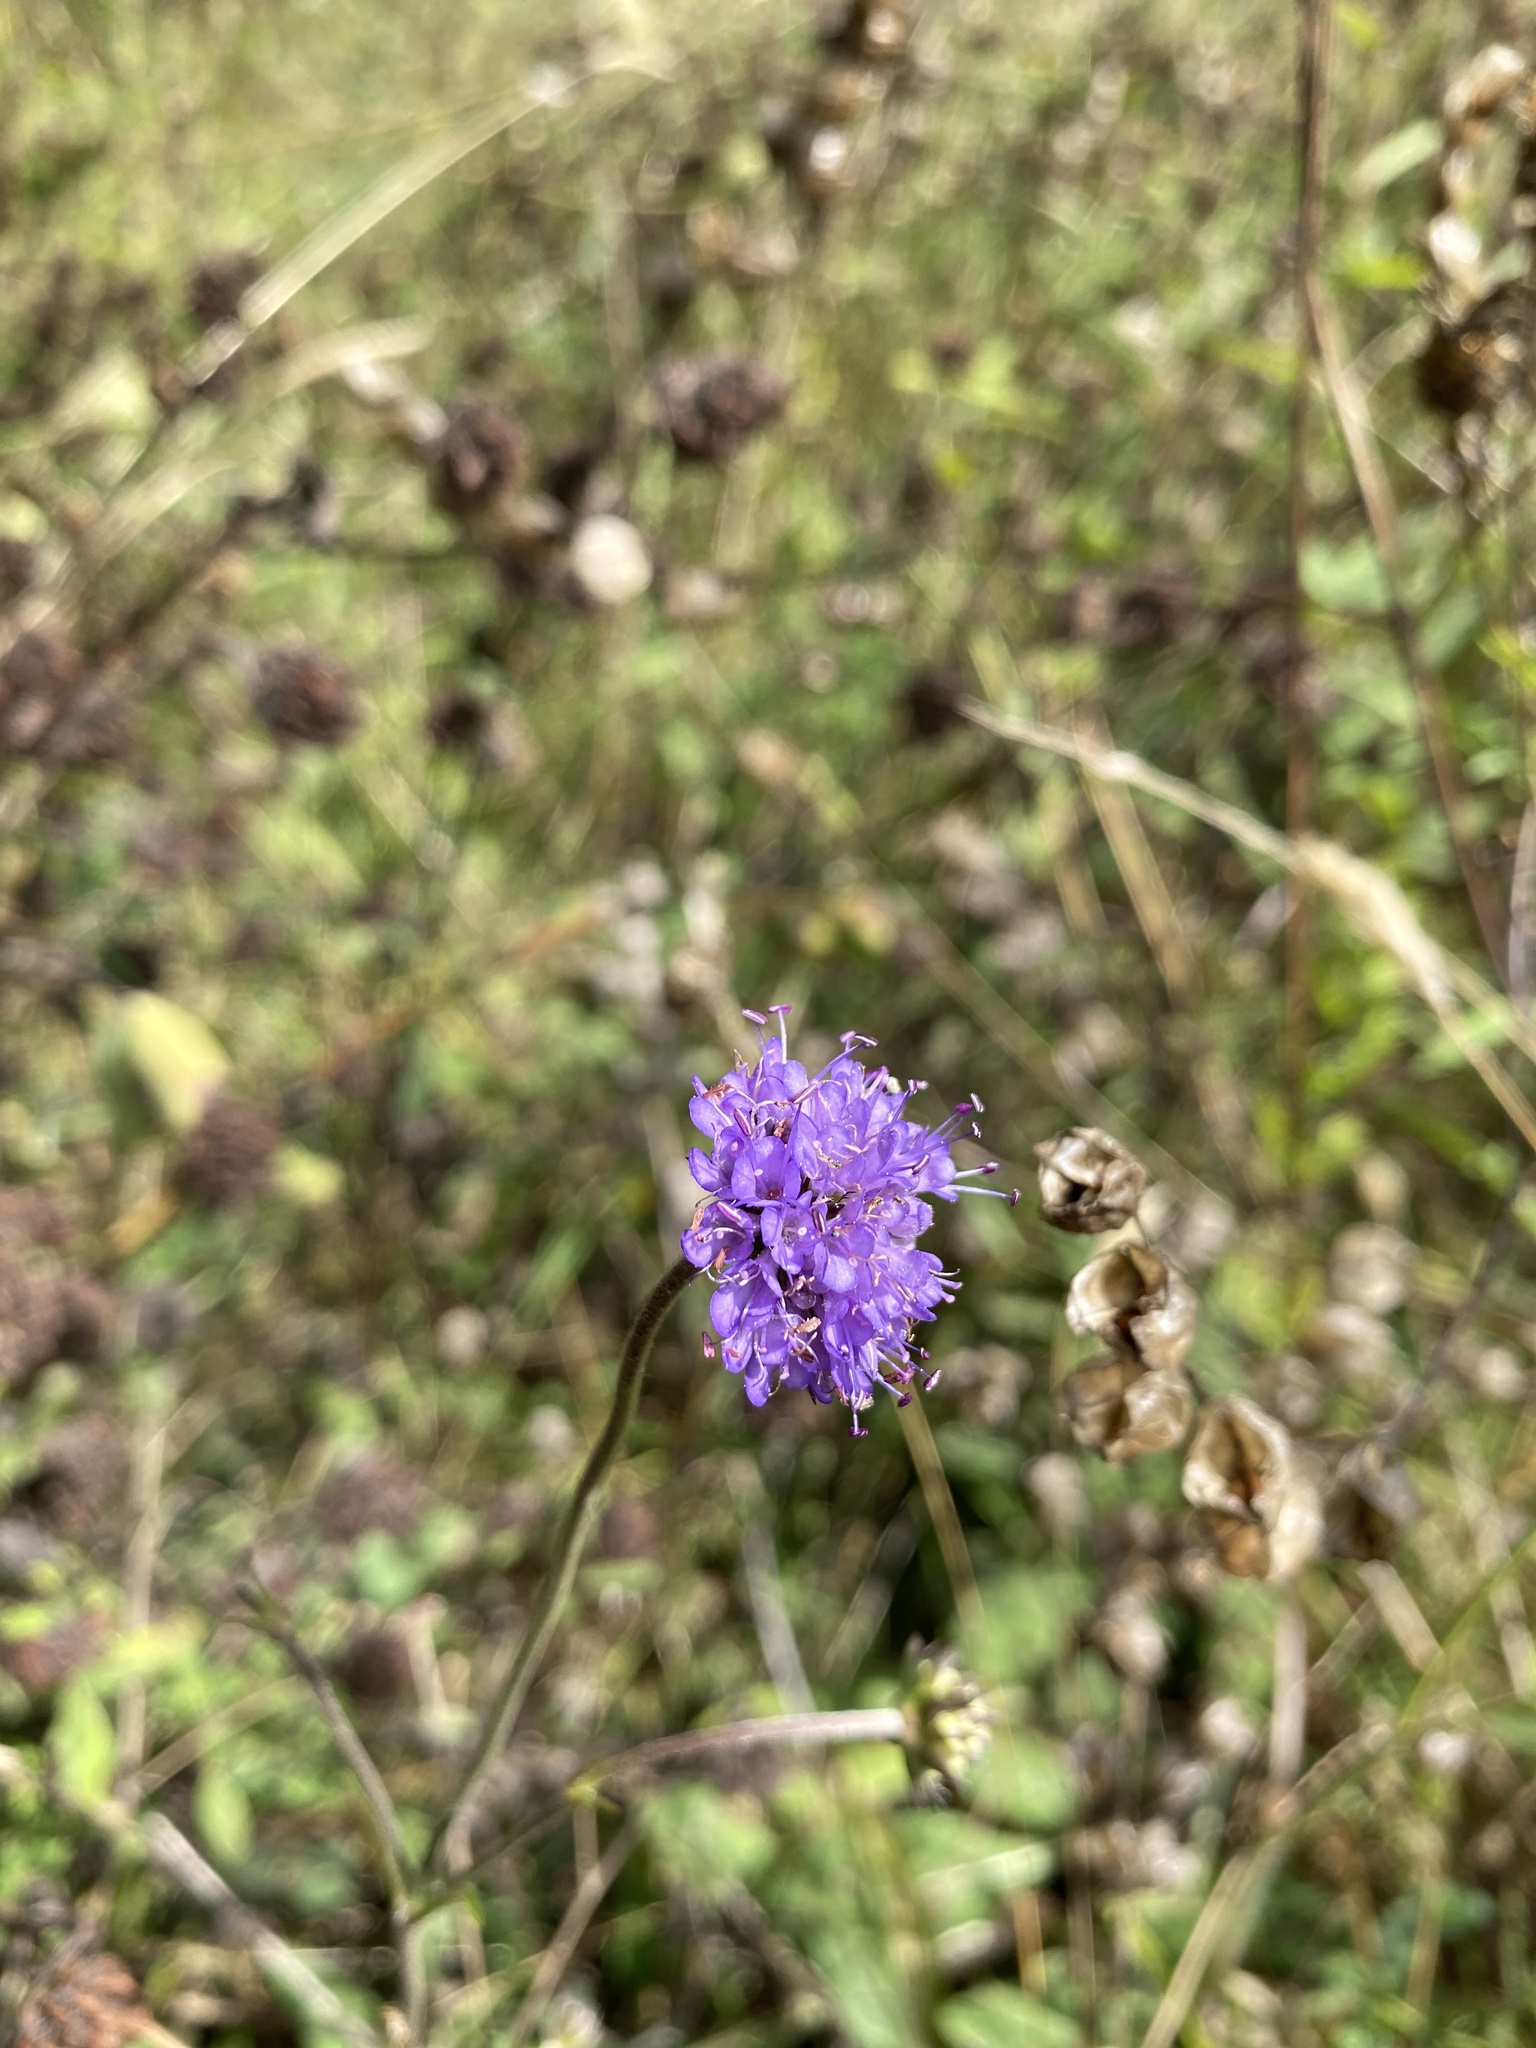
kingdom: Plantae
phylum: Tracheophyta
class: Magnoliopsida
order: Dipsacales
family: Caprifoliaceae
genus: Succisa
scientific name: Succisa pratensis
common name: Devil's-bit
